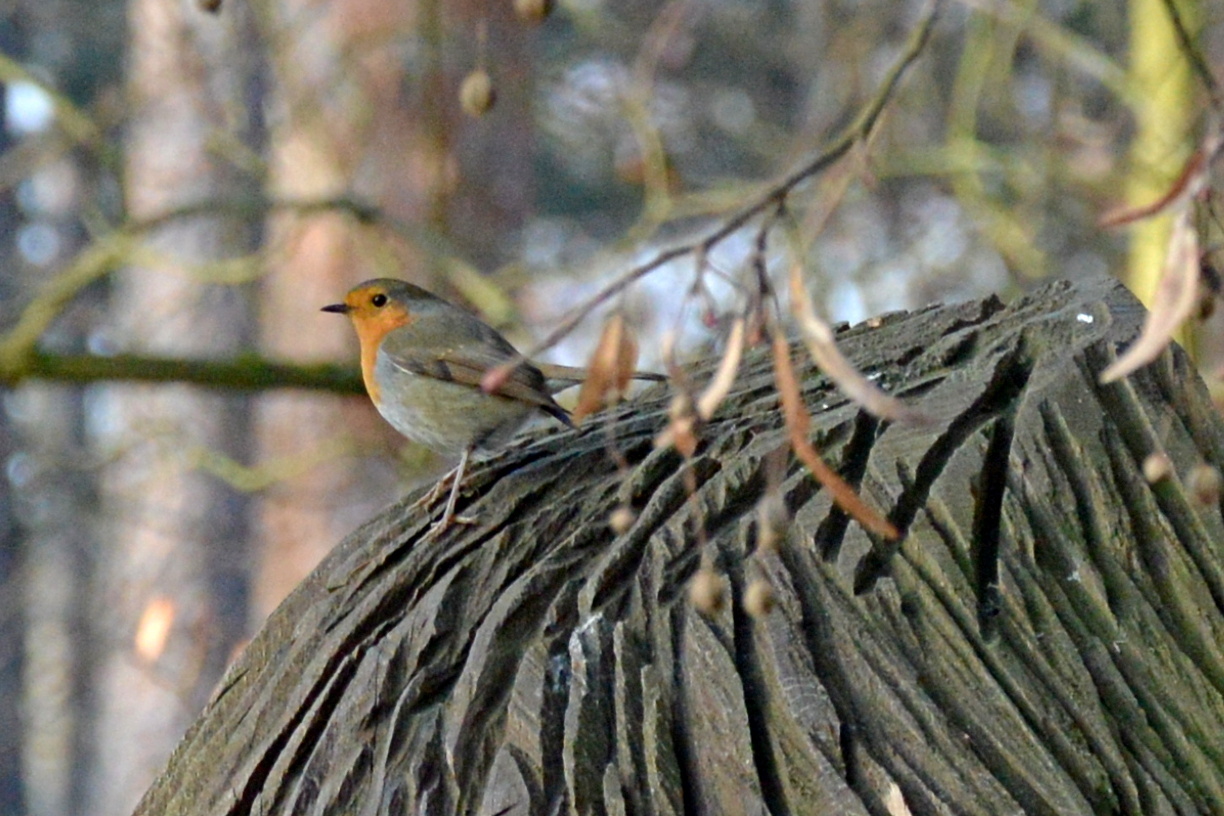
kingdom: Animalia
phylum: Chordata
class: Aves
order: Passeriformes
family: Muscicapidae
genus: Erithacus
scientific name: Erithacus rubecula
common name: European robin
